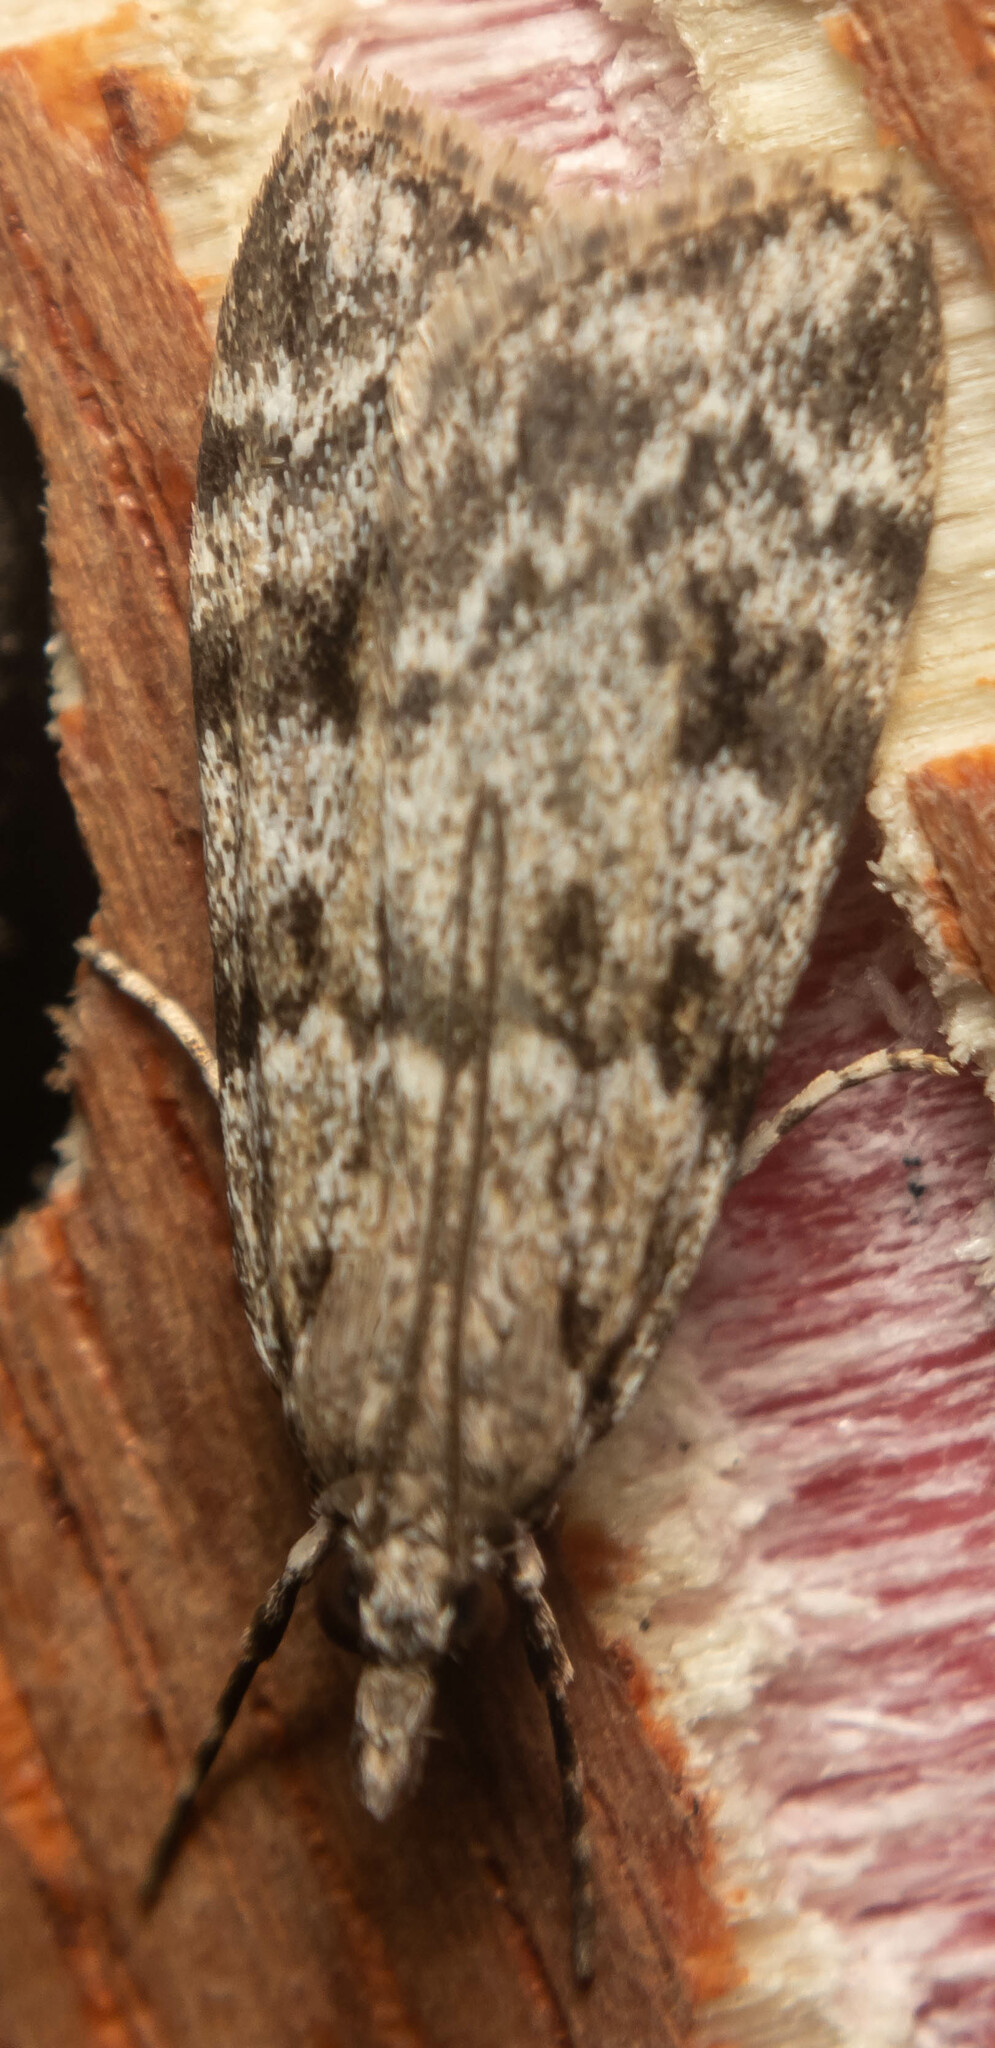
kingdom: Animalia
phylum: Arthropoda
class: Insecta
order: Lepidoptera
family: Crambidae
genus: Scoparia
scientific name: Scoparia ambigualis
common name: Common grey
